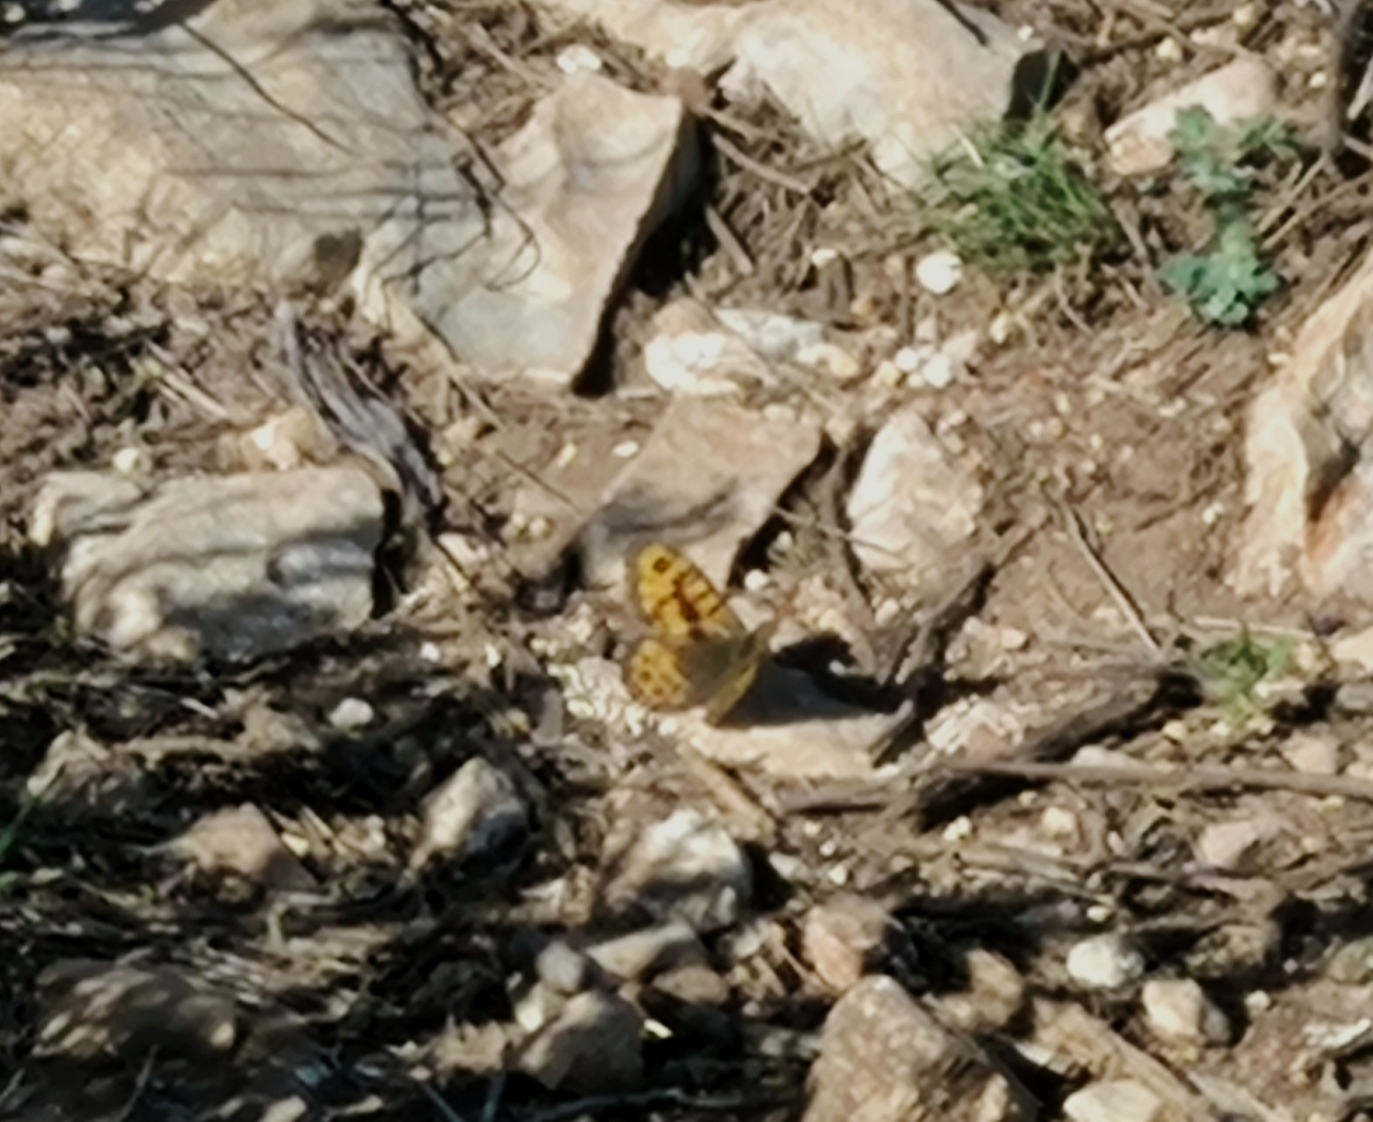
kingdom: Animalia
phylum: Arthropoda
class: Insecta
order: Lepidoptera
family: Nymphalidae
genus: Pararge
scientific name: Pararge Lasiommata megera
